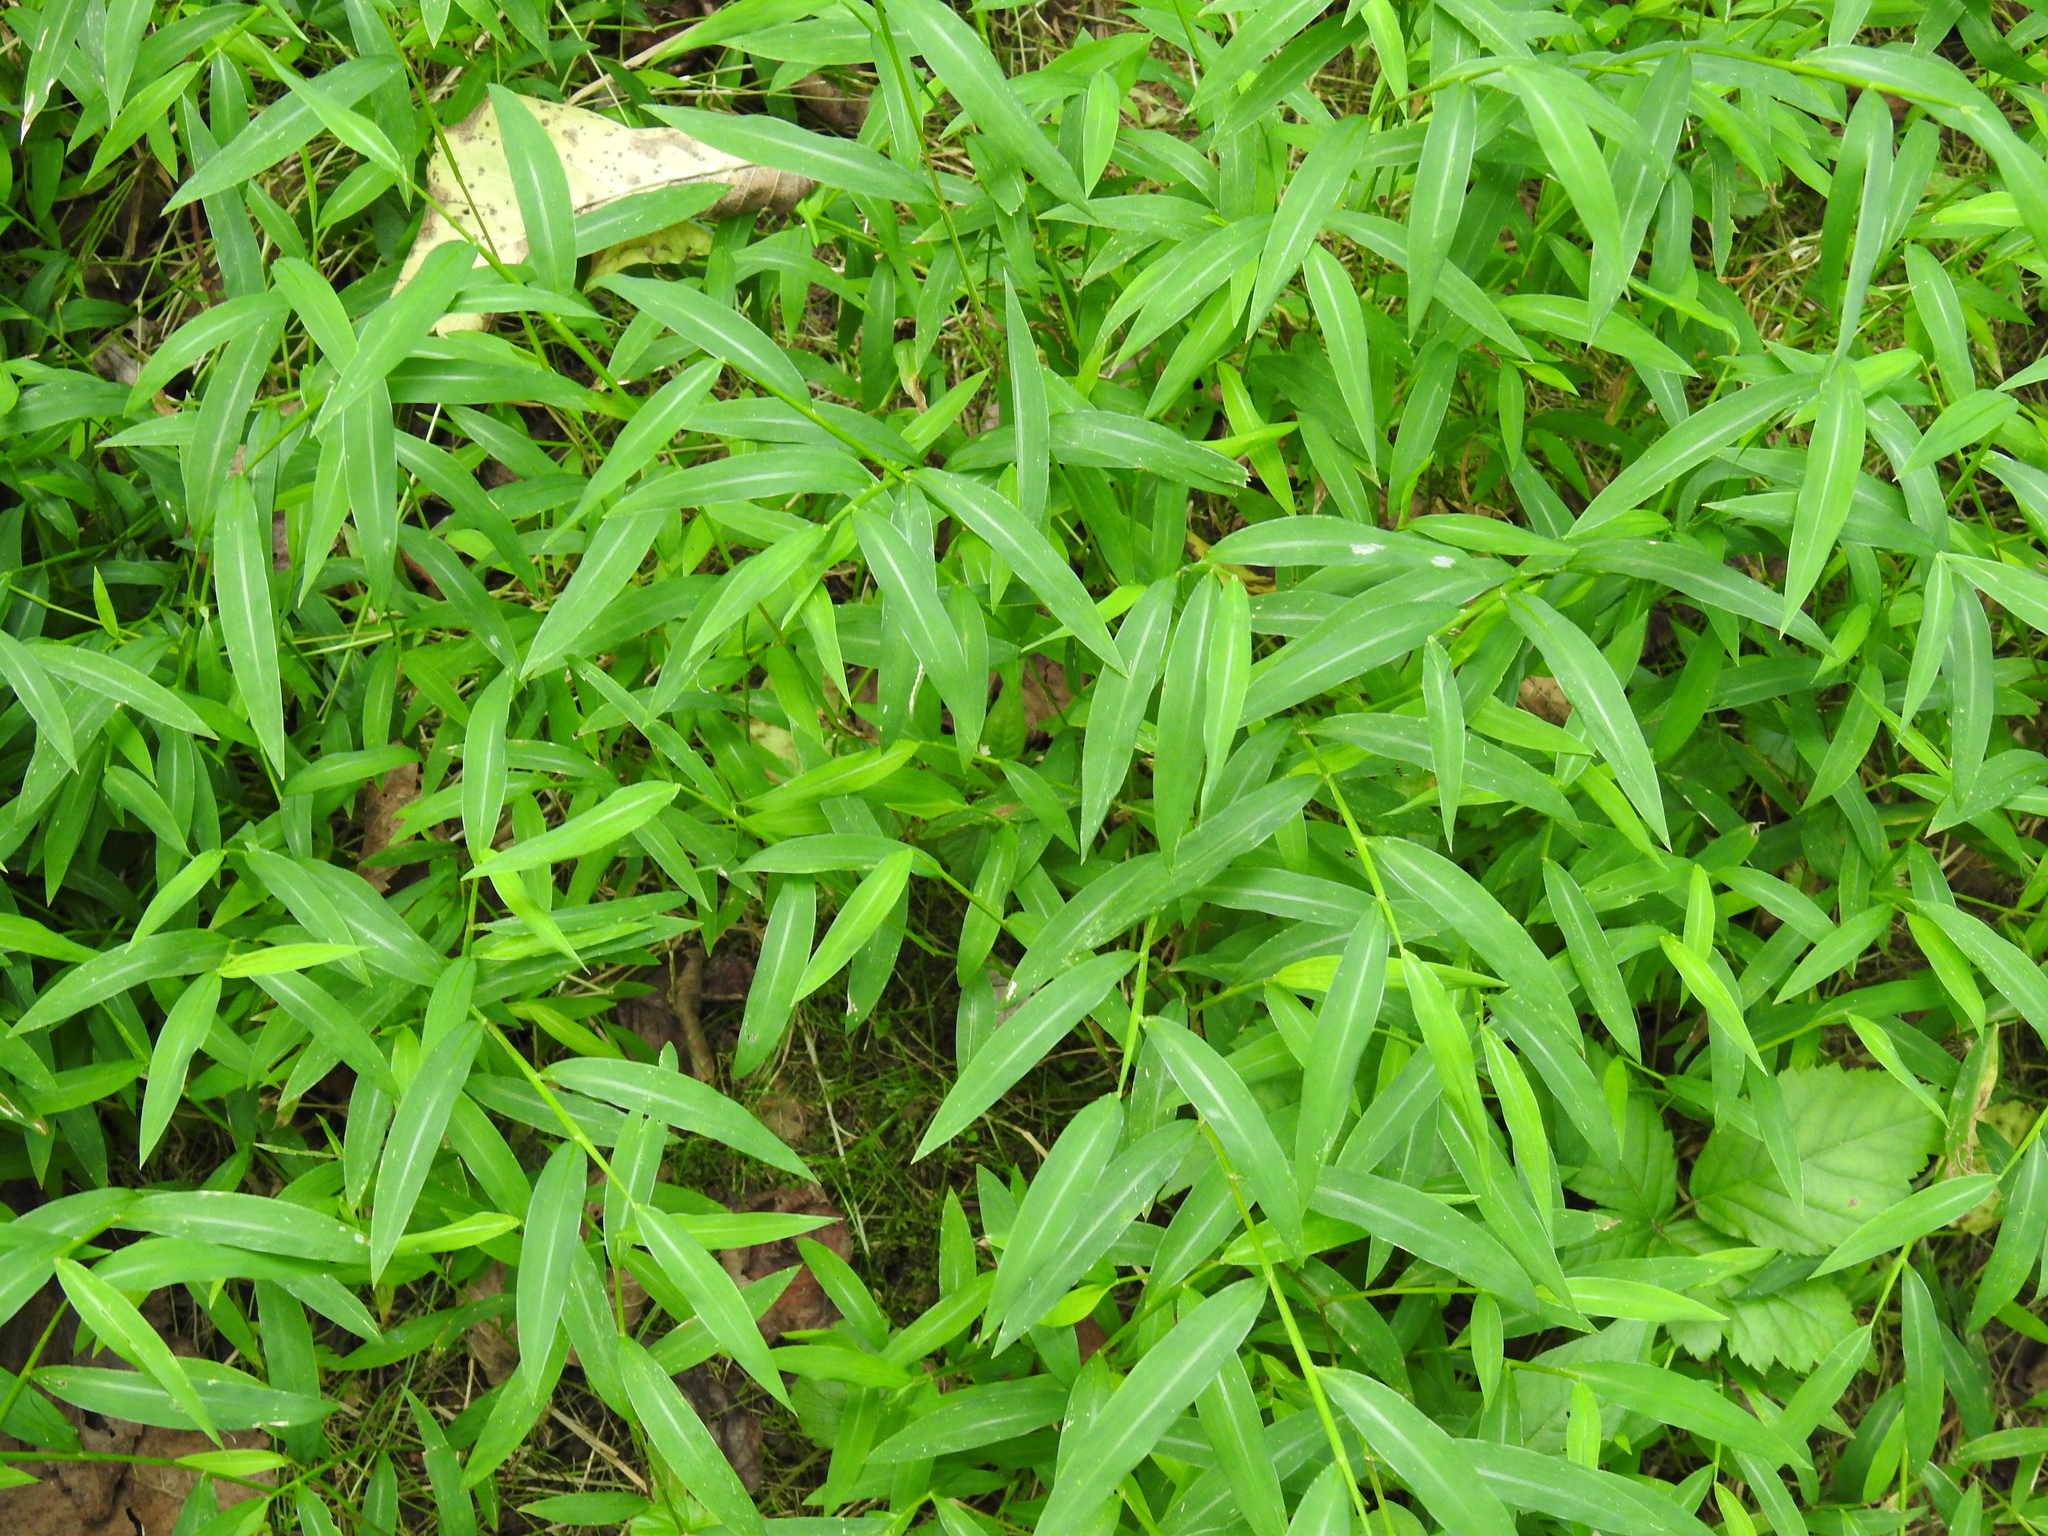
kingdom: Plantae
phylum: Tracheophyta
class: Liliopsida
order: Poales
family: Poaceae
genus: Microstegium
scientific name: Microstegium vimineum
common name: Japanese stiltgrass
